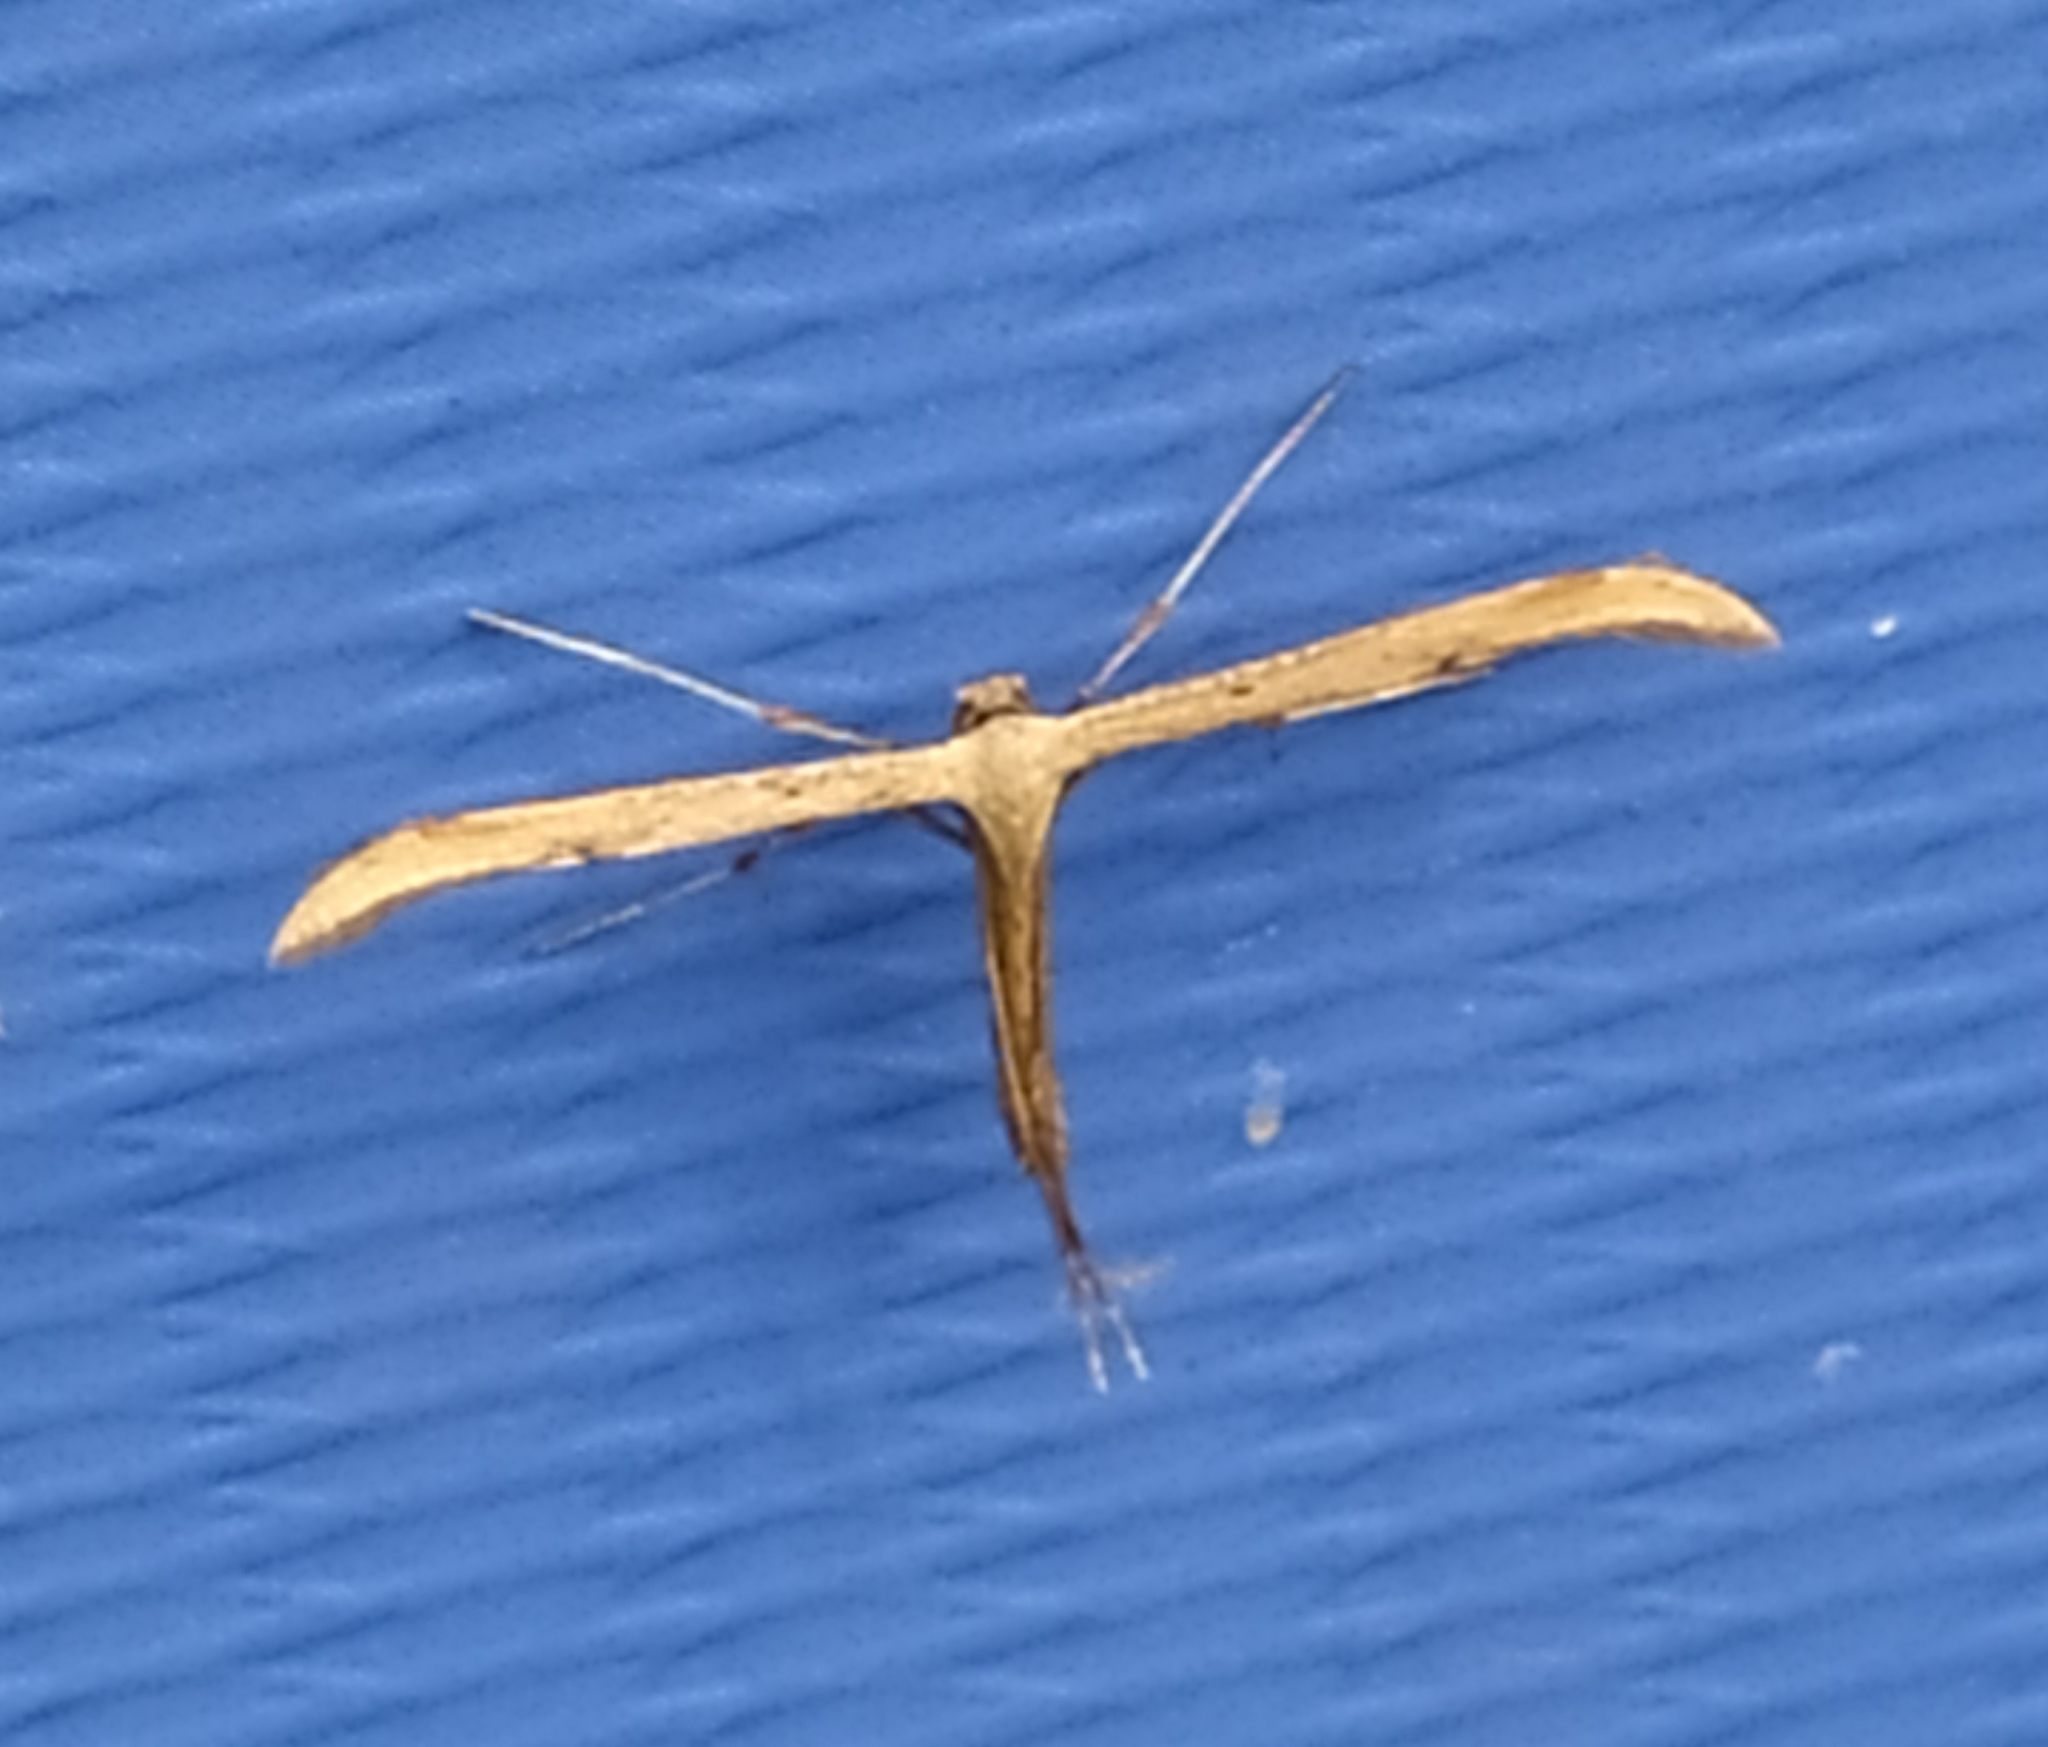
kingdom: Animalia
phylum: Arthropoda
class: Insecta
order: Lepidoptera
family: Pterophoridae
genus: Emmelina
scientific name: Emmelina monodactyla
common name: Common plume
